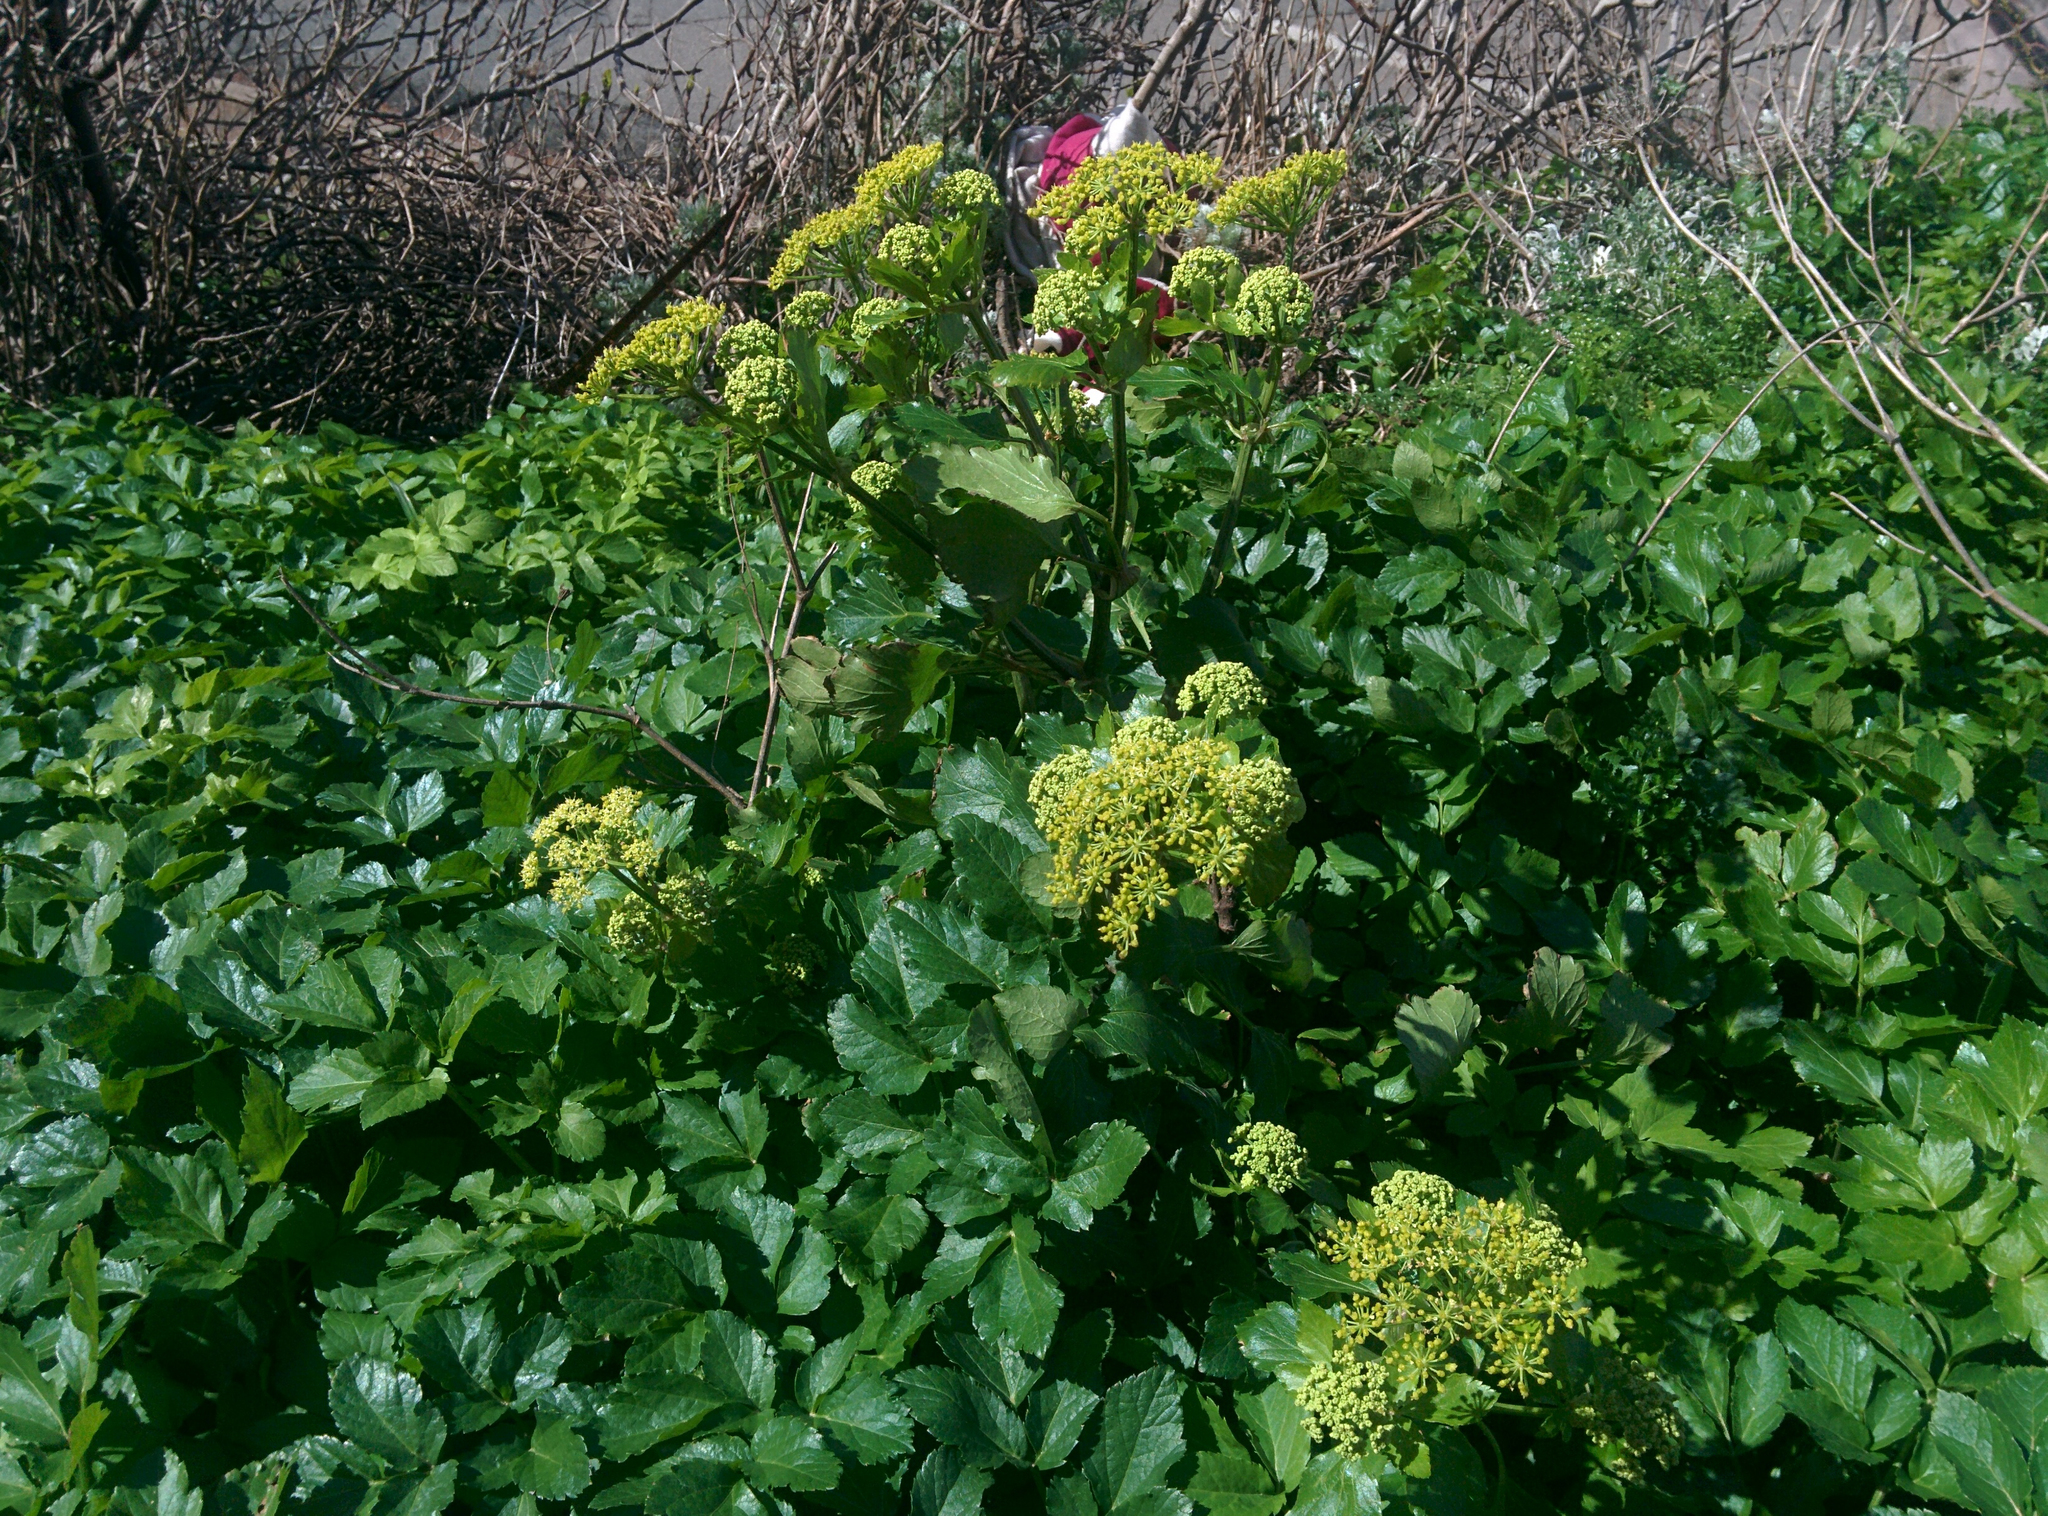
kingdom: Plantae
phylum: Tracheophyta
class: Magnoliopsida
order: Apiales
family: Apiaceae
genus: Smyrnium
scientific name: Smyrnium olusatrum
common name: Alexanders
